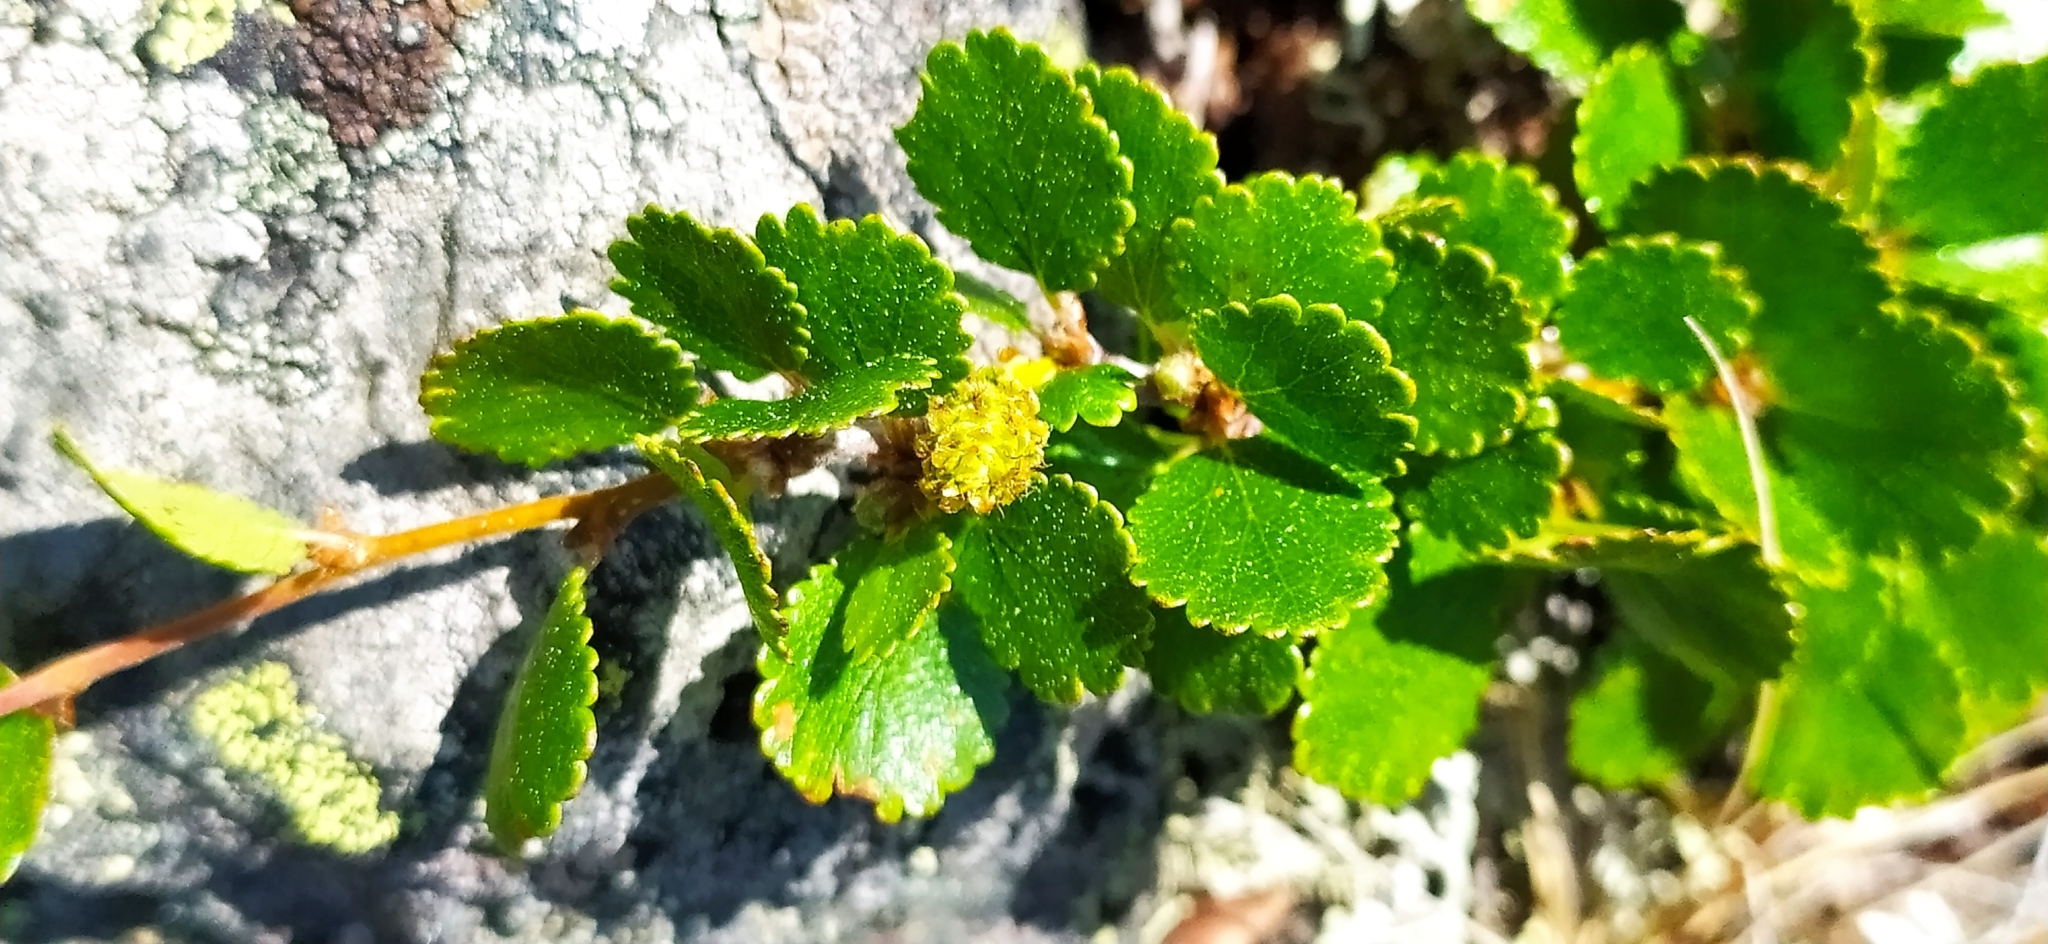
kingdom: Plantae
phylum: Tracheophyta
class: Magnoliopsida
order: Fagales
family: Betulaceae
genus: Betula
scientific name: Betula nana
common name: Arctic dwarf birch
